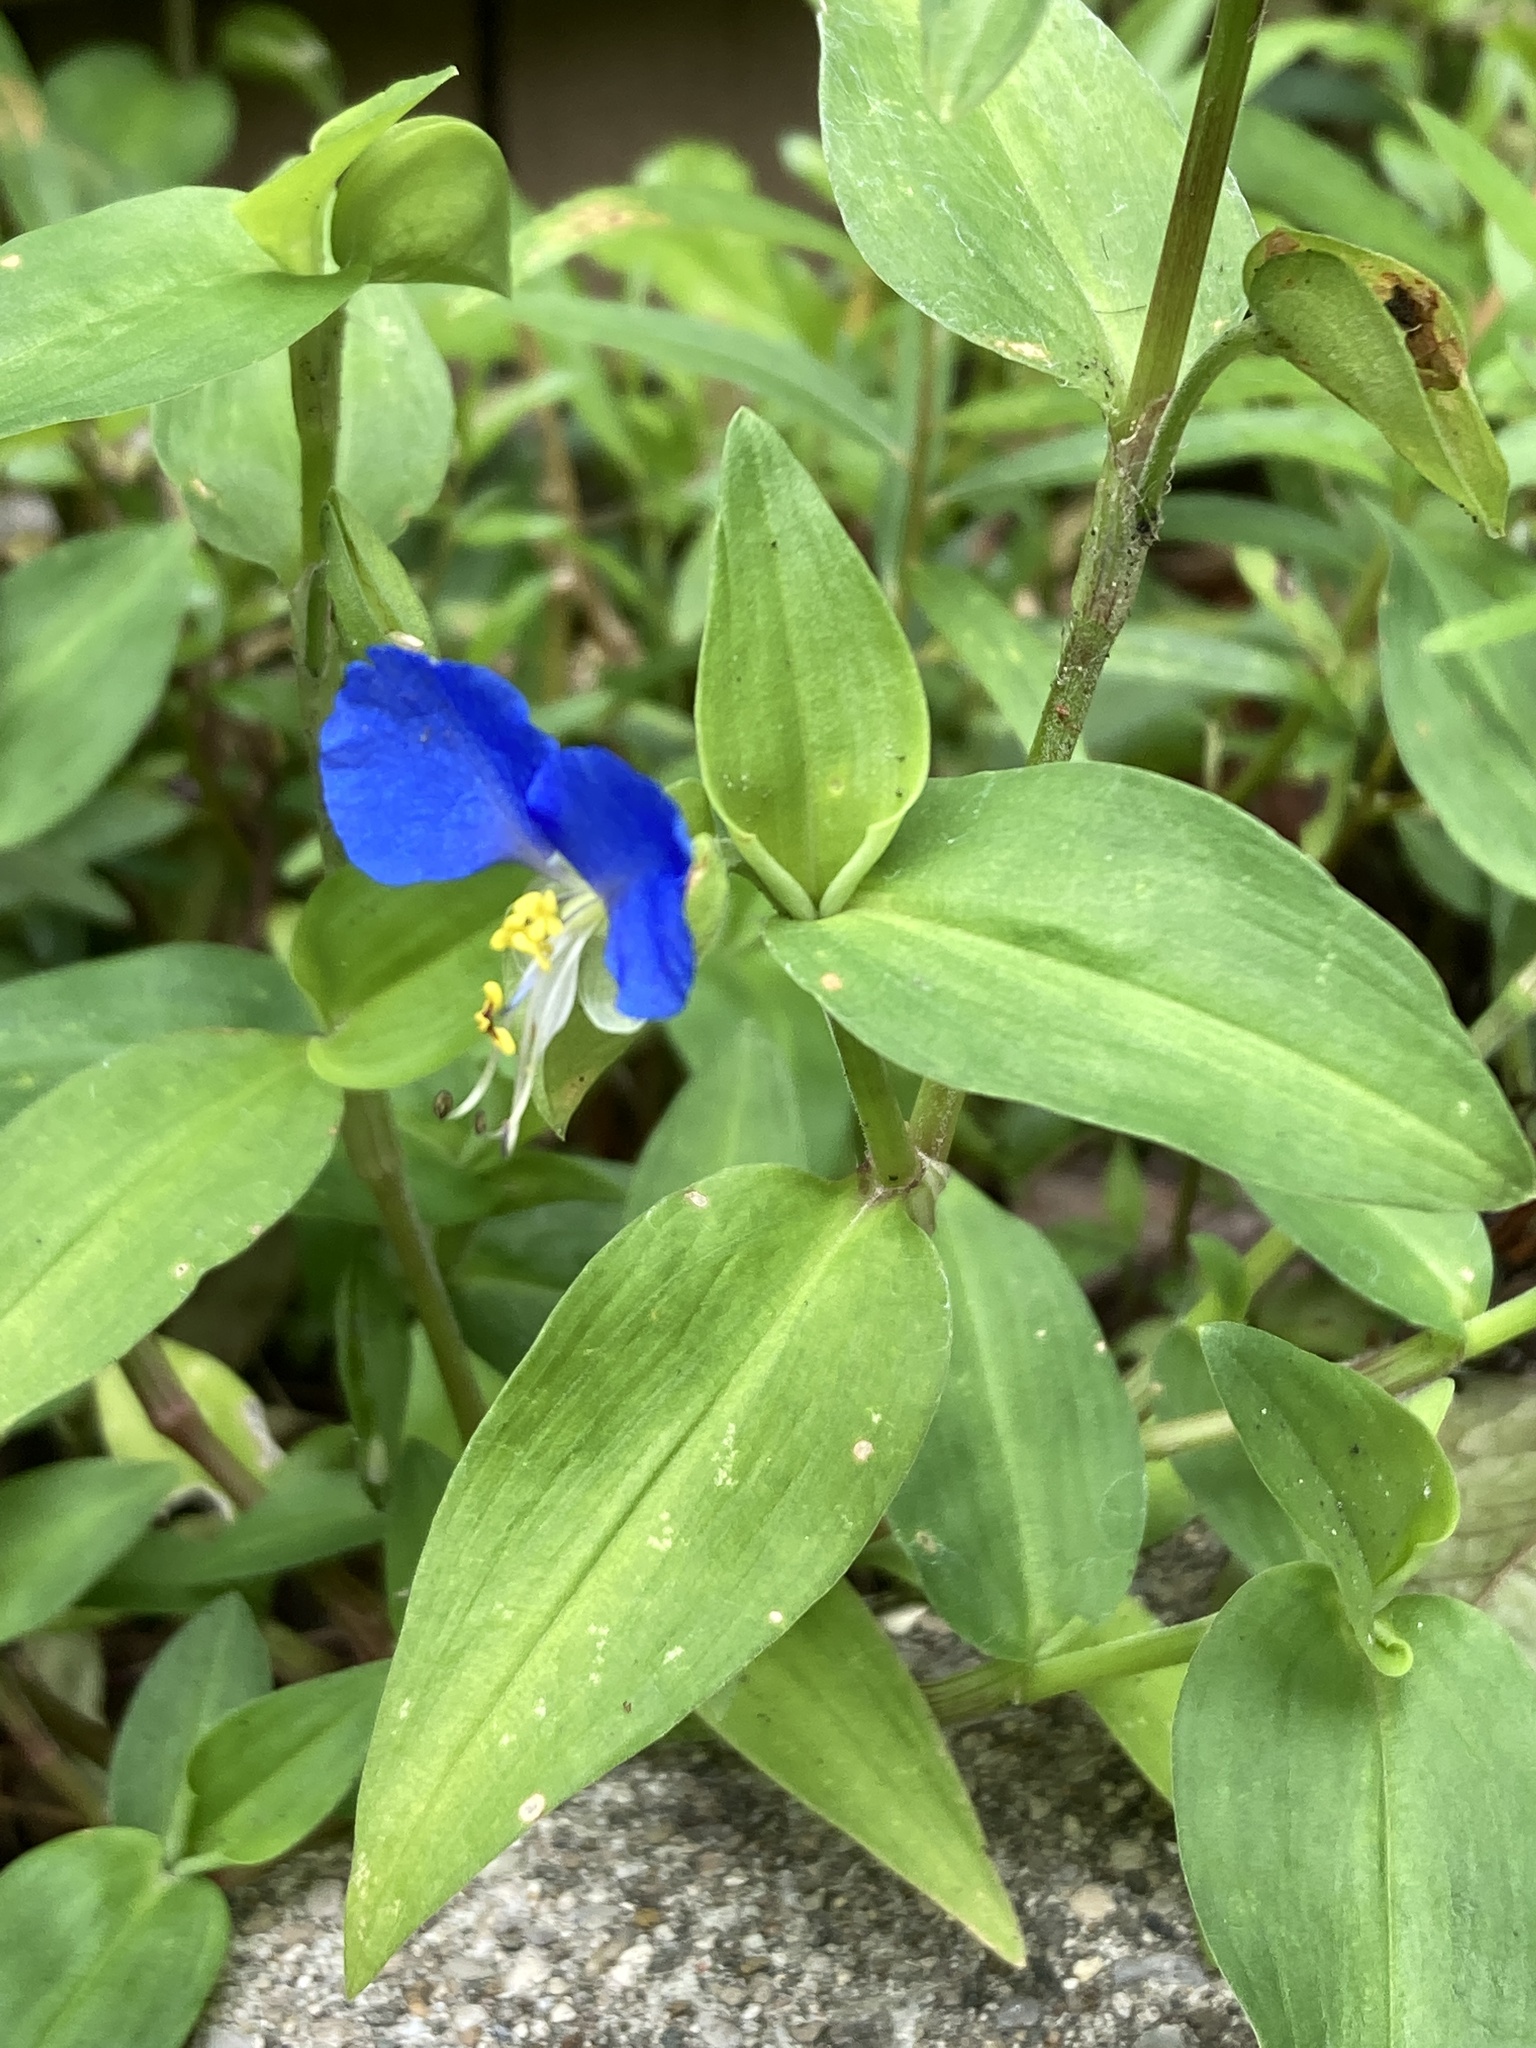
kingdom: Plantae
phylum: Tracheophyta
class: Liliopsida
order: Commelinales
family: Commelinaceae
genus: Commelina
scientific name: Commelina communis
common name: Asiatic dayflower
